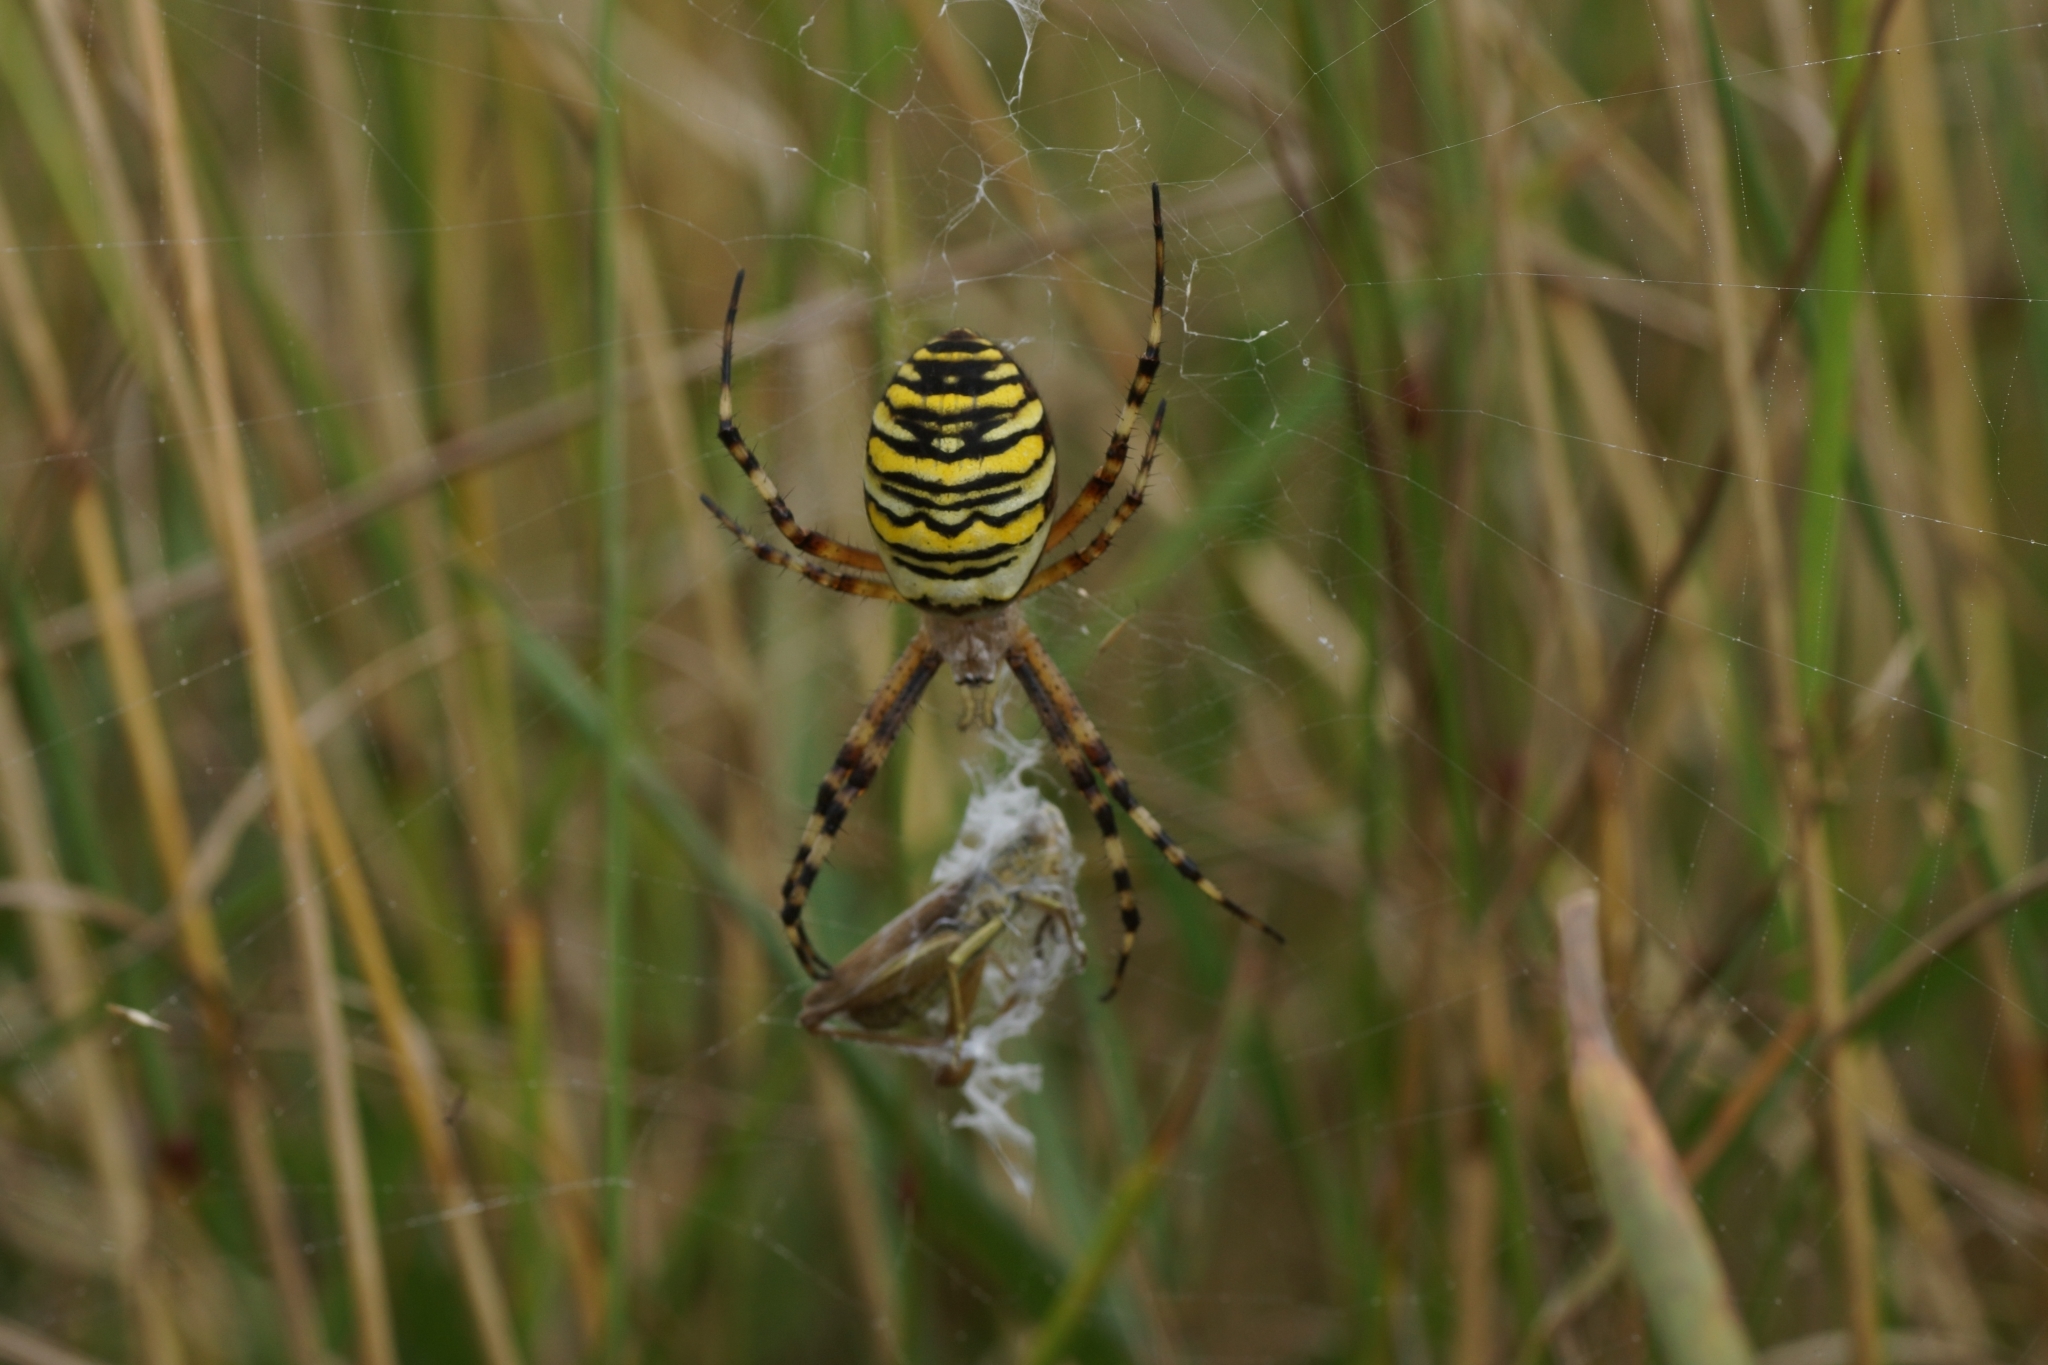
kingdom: Animalia
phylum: Arthropoda
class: Arachnida
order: Araneae
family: Araneidae
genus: Argiope
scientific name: Argiope bruennichi
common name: Wasp spider
